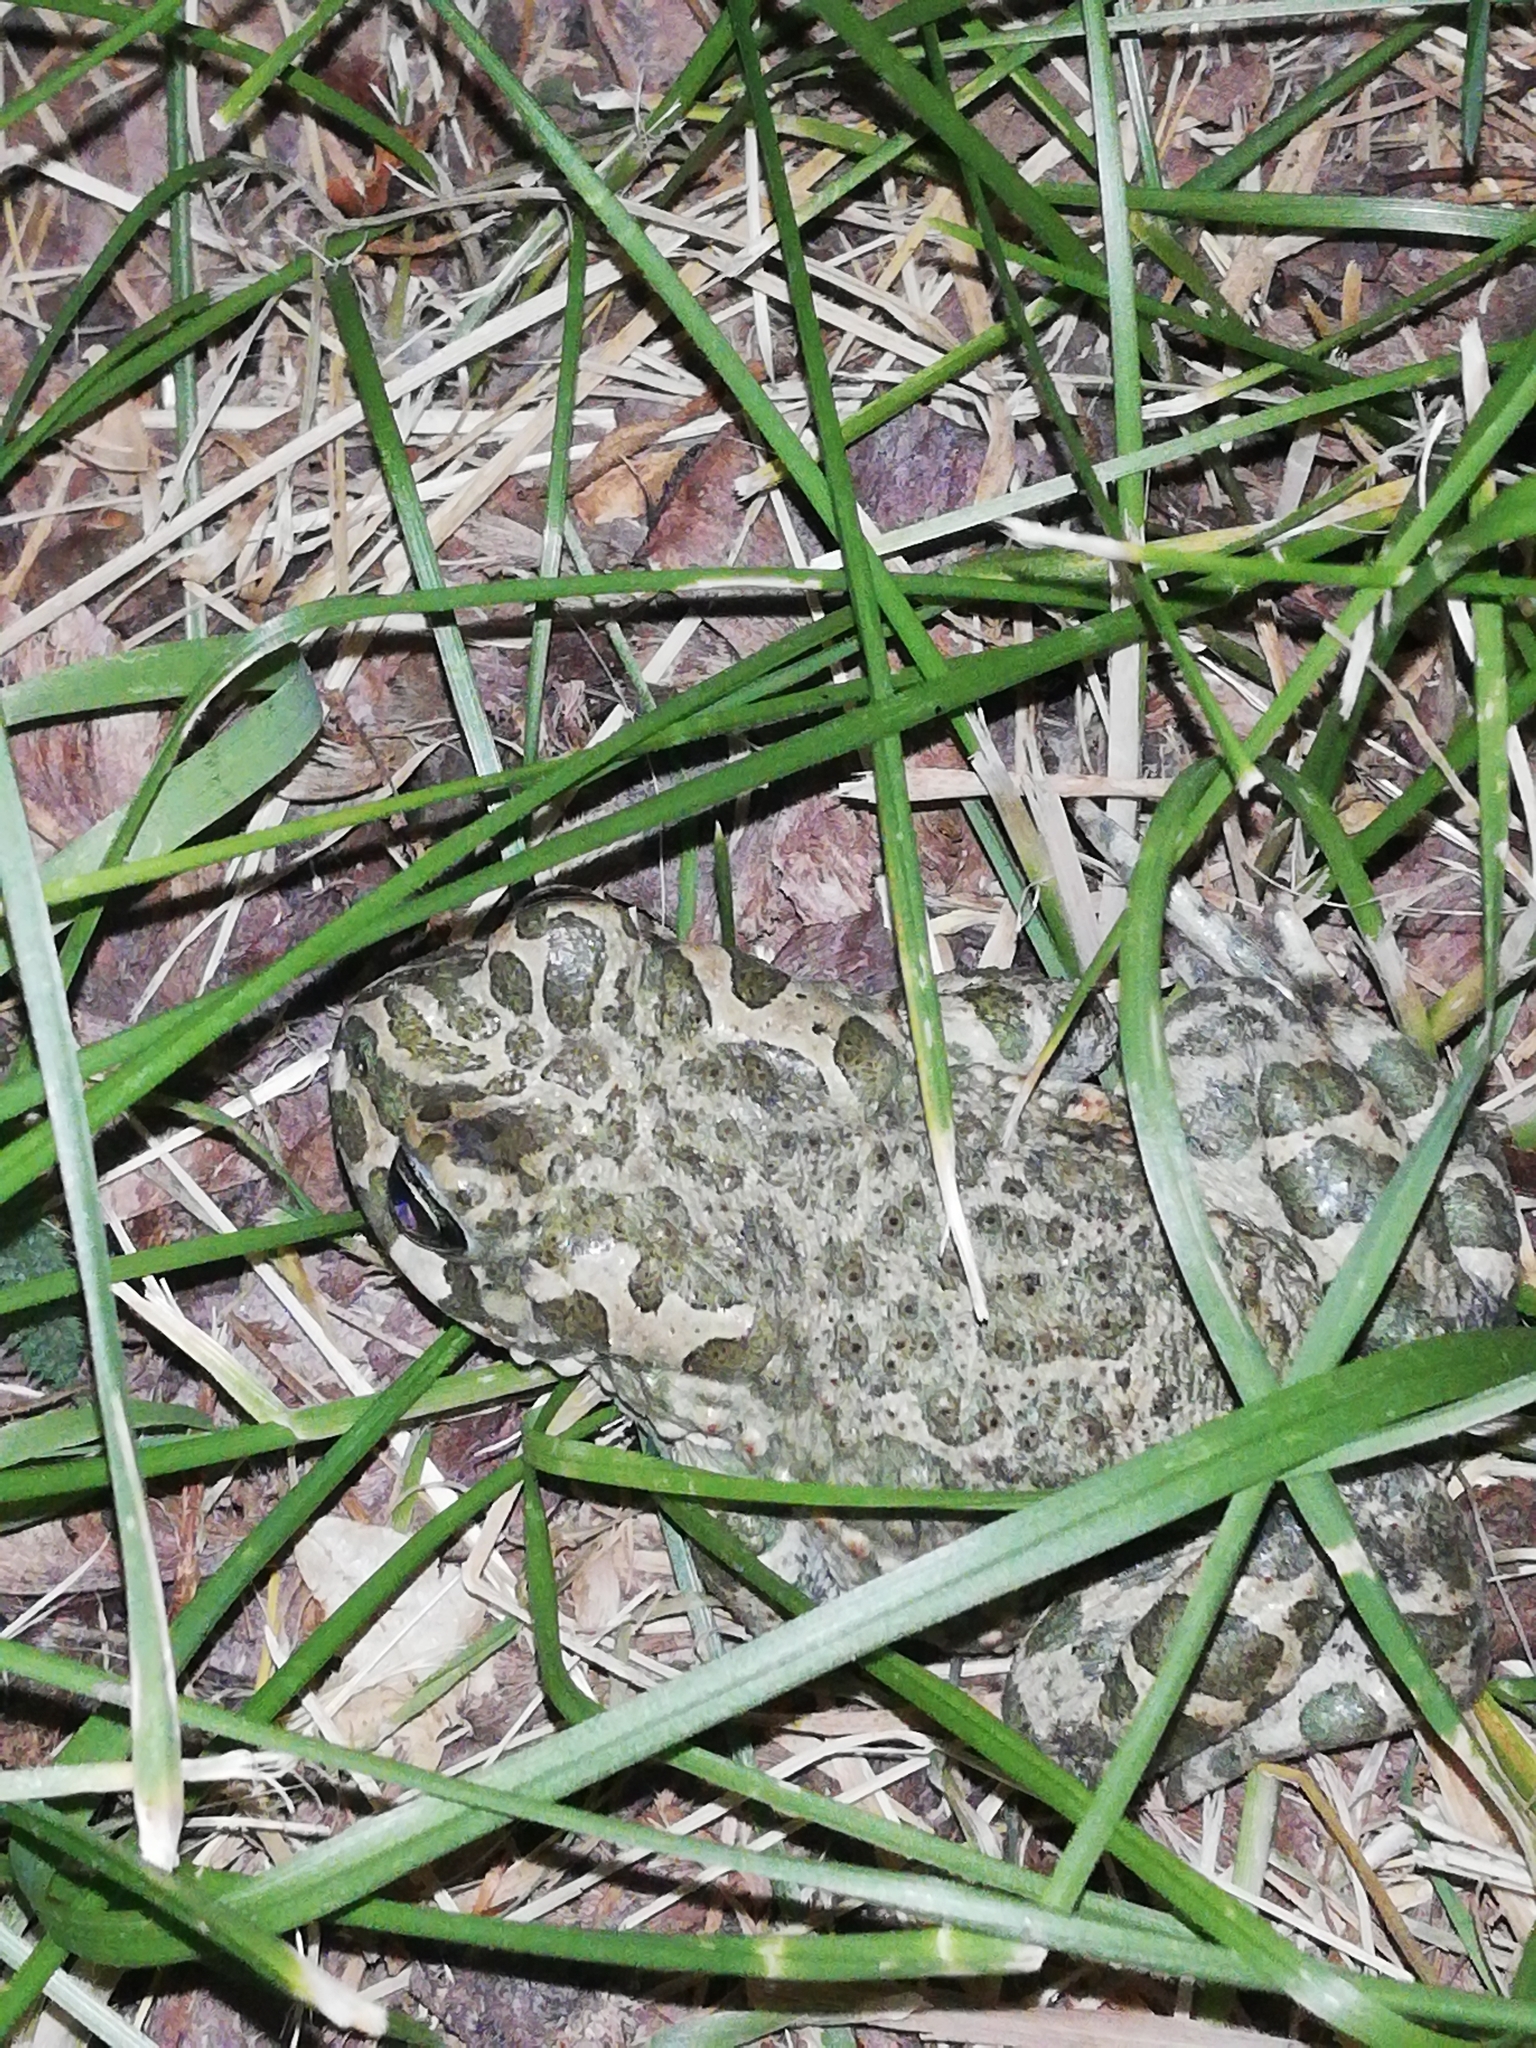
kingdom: Animalia
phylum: Chordata
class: Amphibia
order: Anura
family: Bufonidae
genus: Bufotes
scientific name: Bufotes viridis
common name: European green toad
